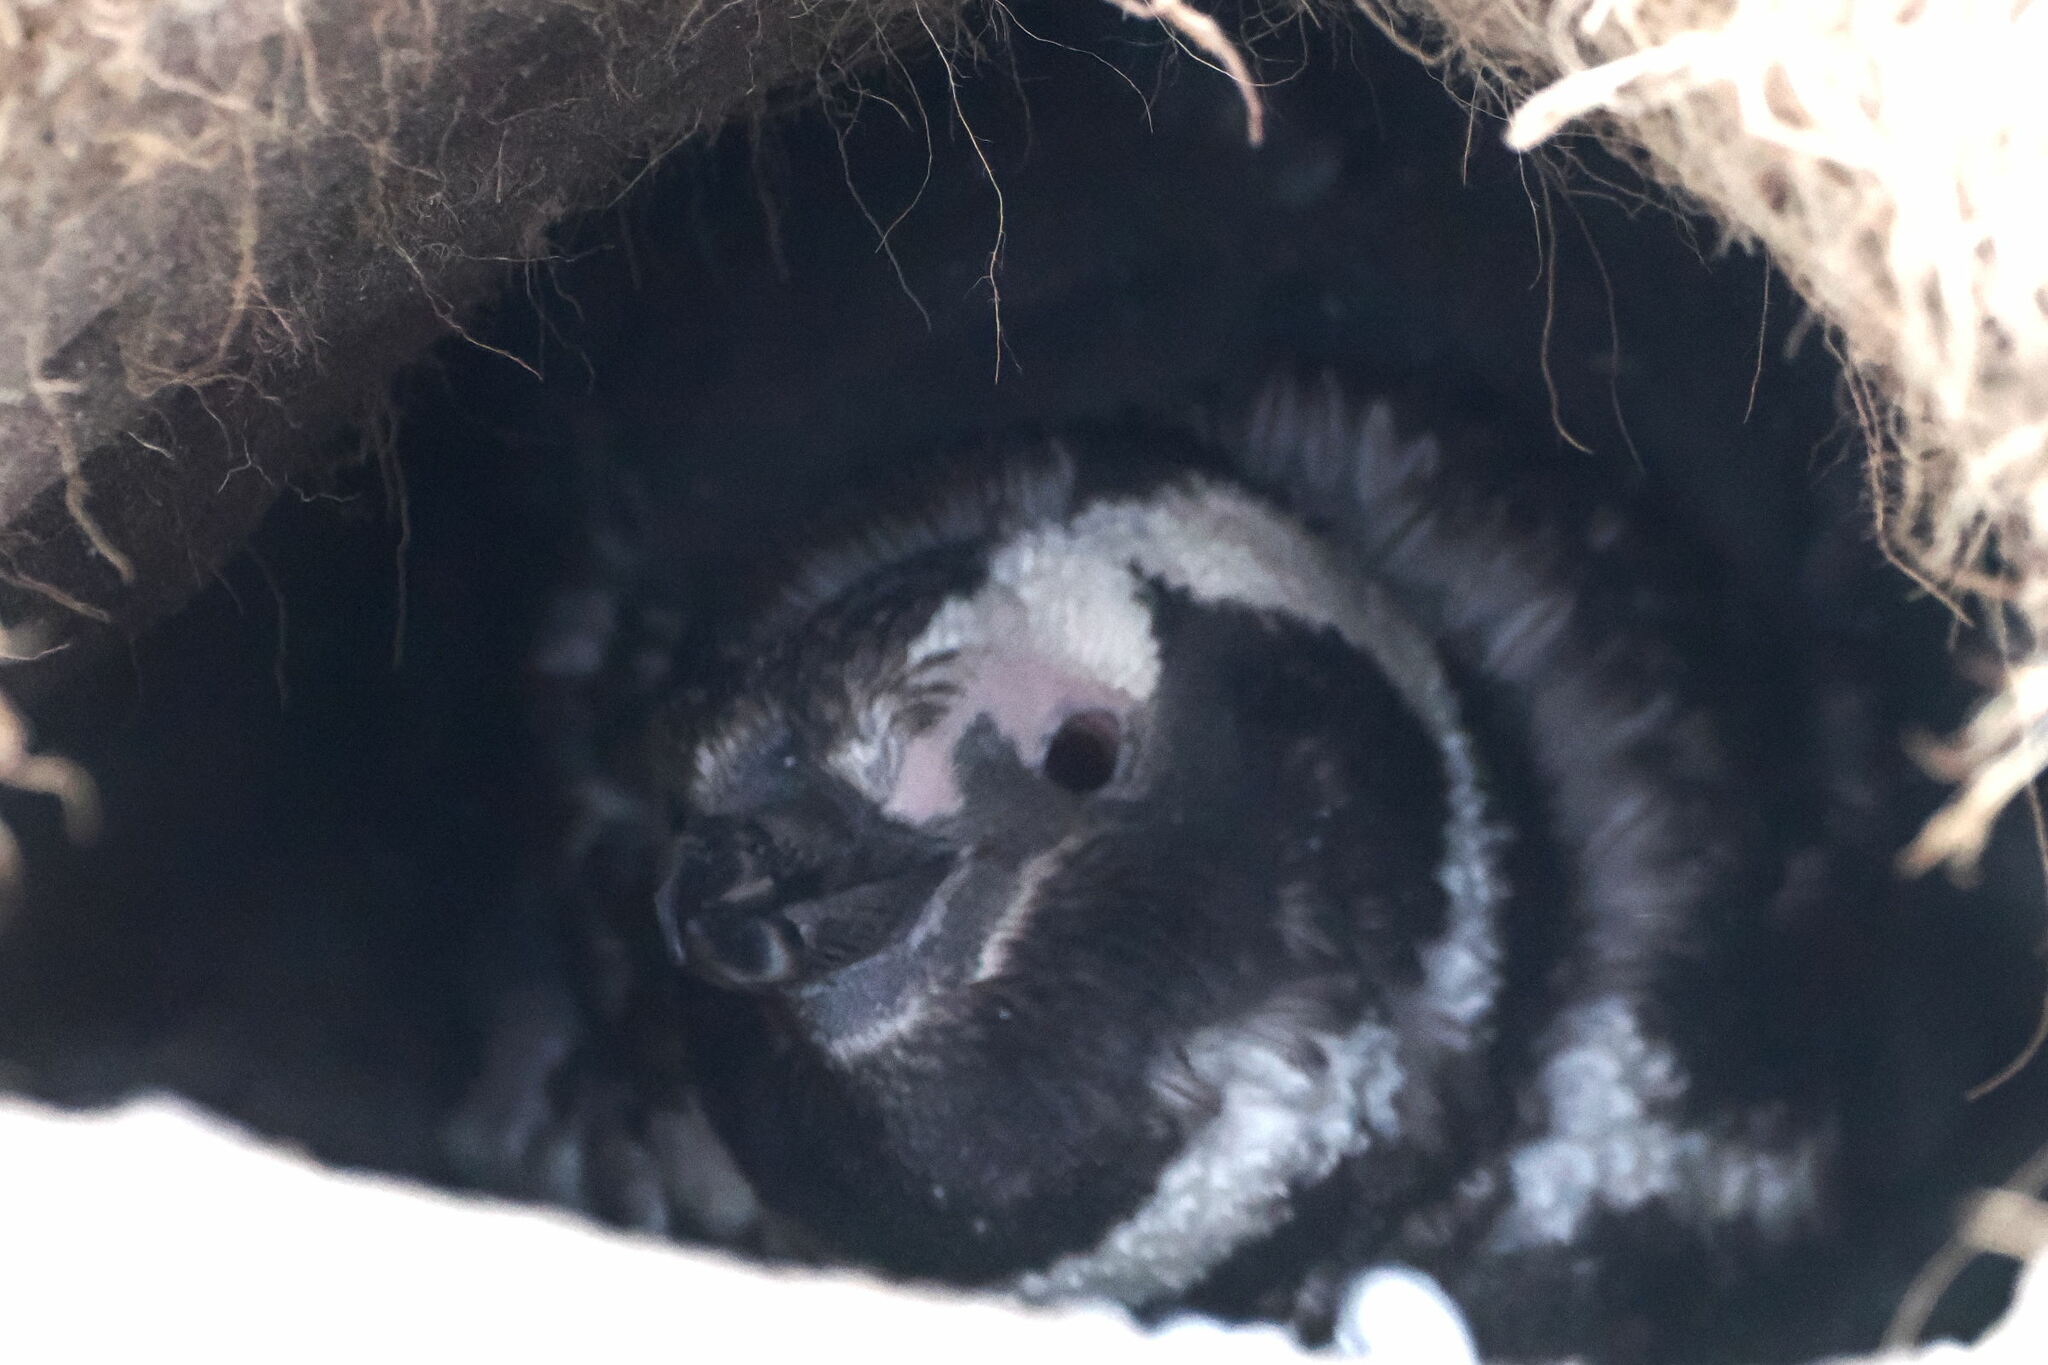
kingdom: Animalia
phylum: Chordata
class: Aves
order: Sphenisciformes
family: Spheniscidae
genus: Spheniscus
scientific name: Spheniscus magellanicus
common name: Magellanic penguin
